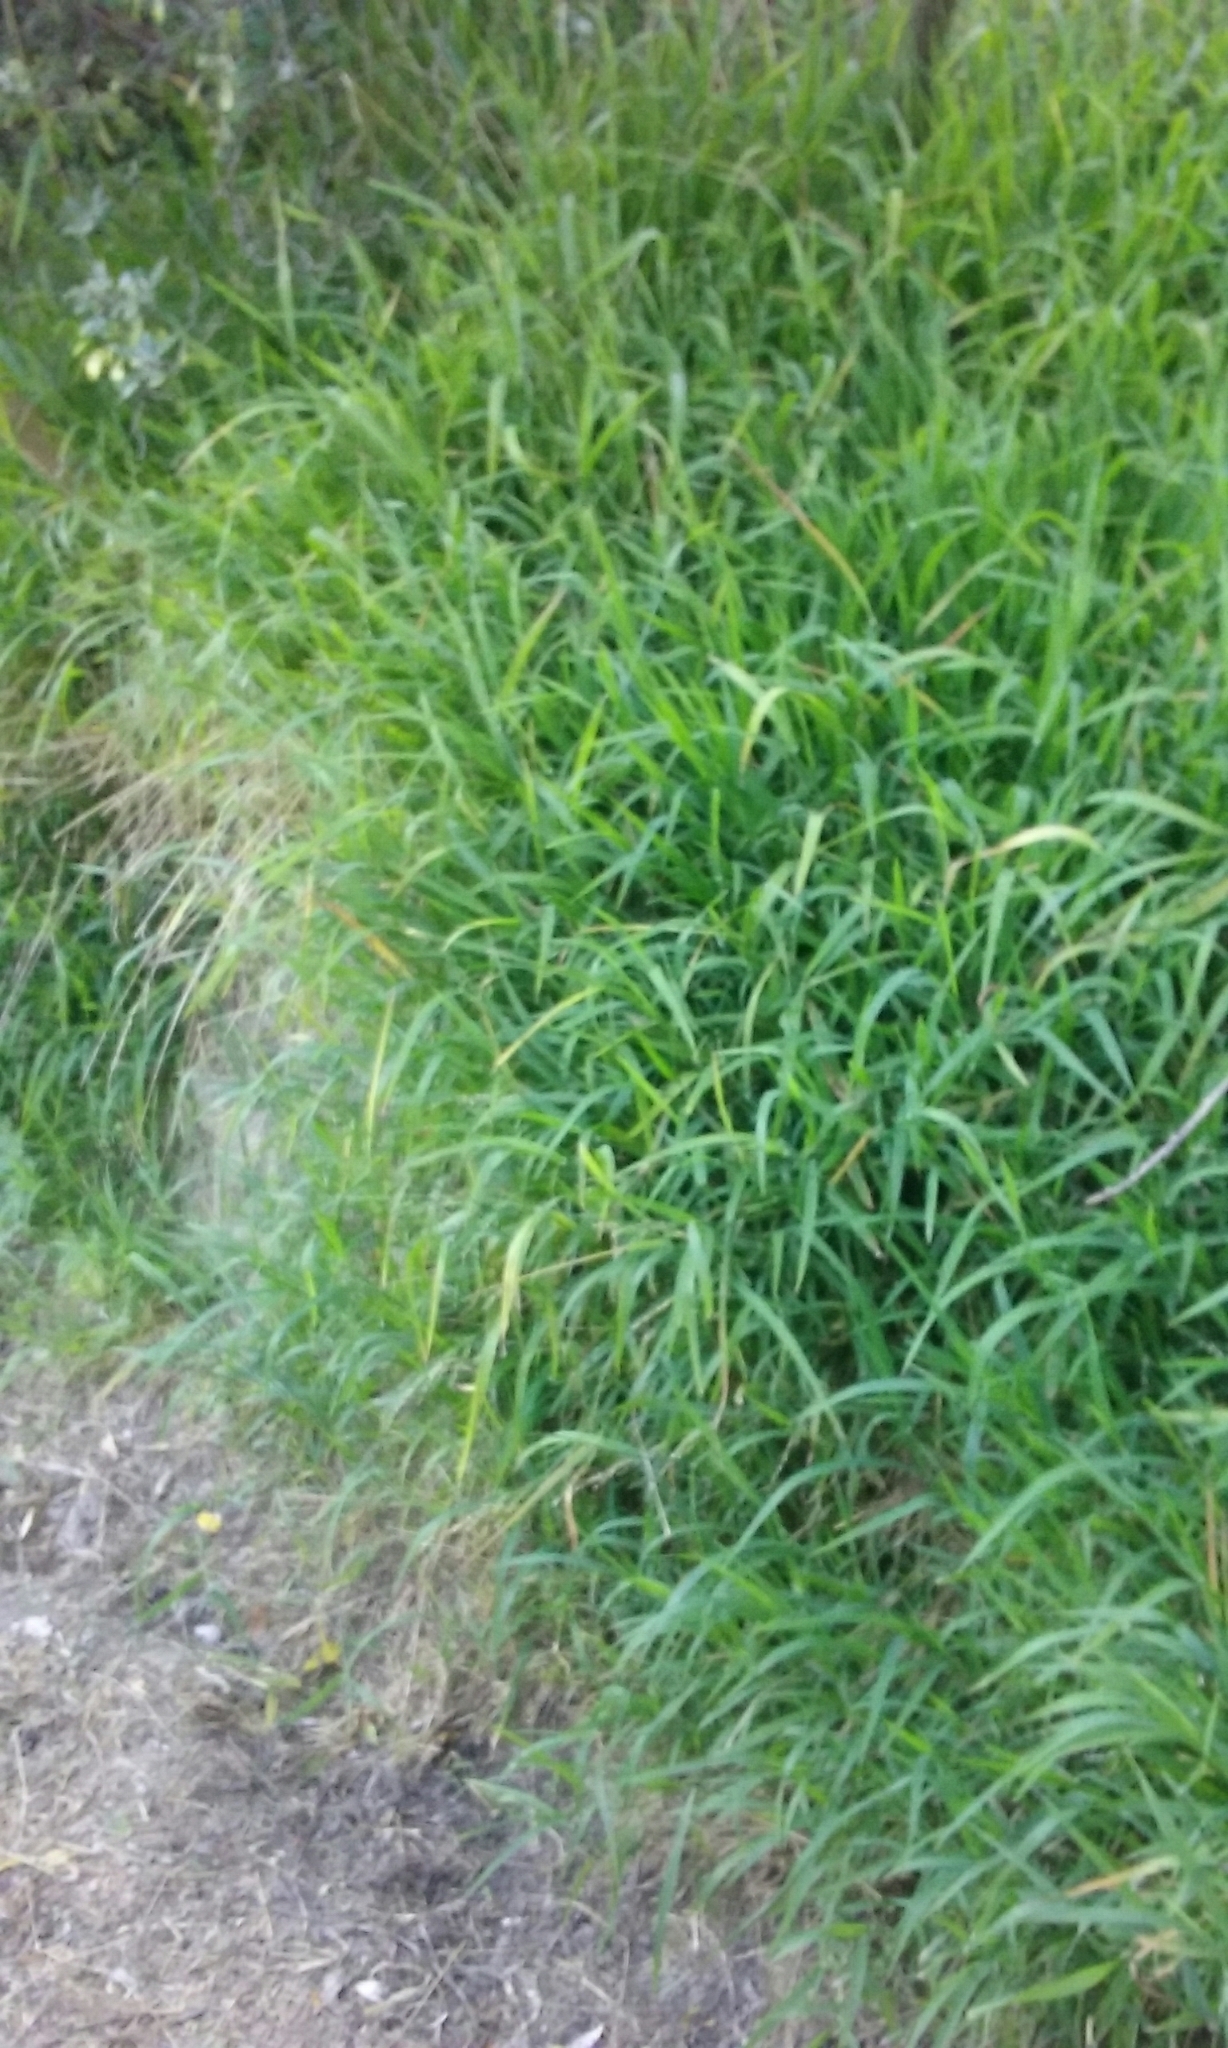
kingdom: Plantae
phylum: Tracheophyta
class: Liliopsida
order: Poales
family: Poaceae
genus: Ehrharta
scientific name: Ehrharta erecta
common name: Panic veldtgrass
